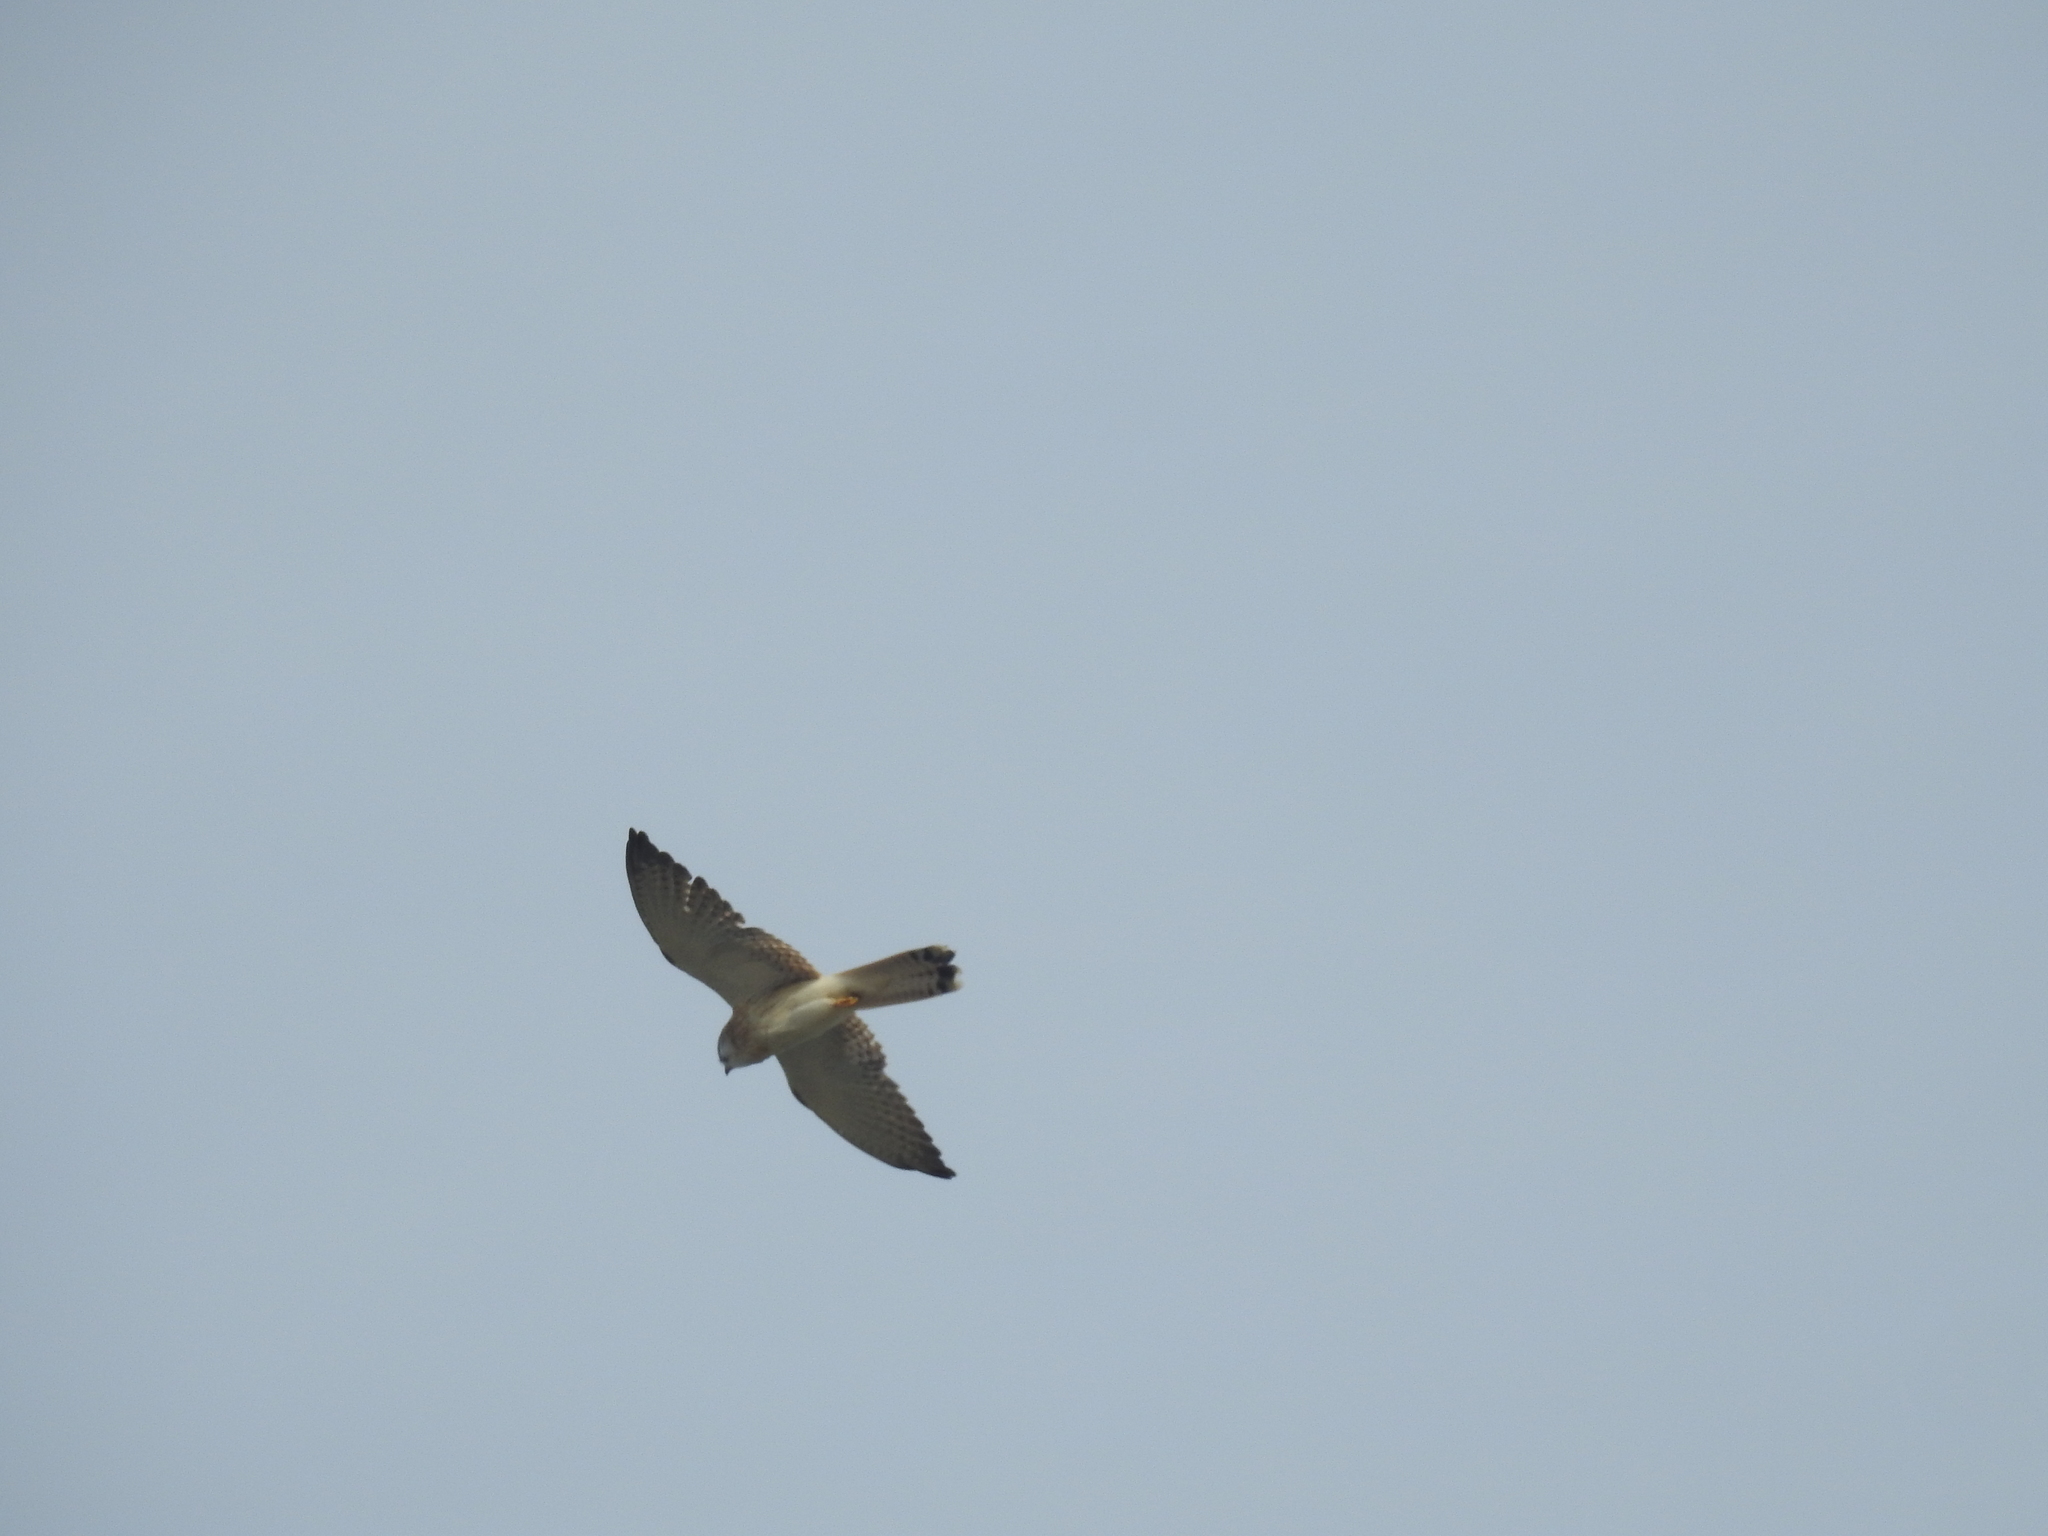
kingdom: Animalia
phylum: Chordata
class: Aves
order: Falconiformes
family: Falconidae
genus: Falco
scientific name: Falco cenchroides
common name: Nankeen kestrel
